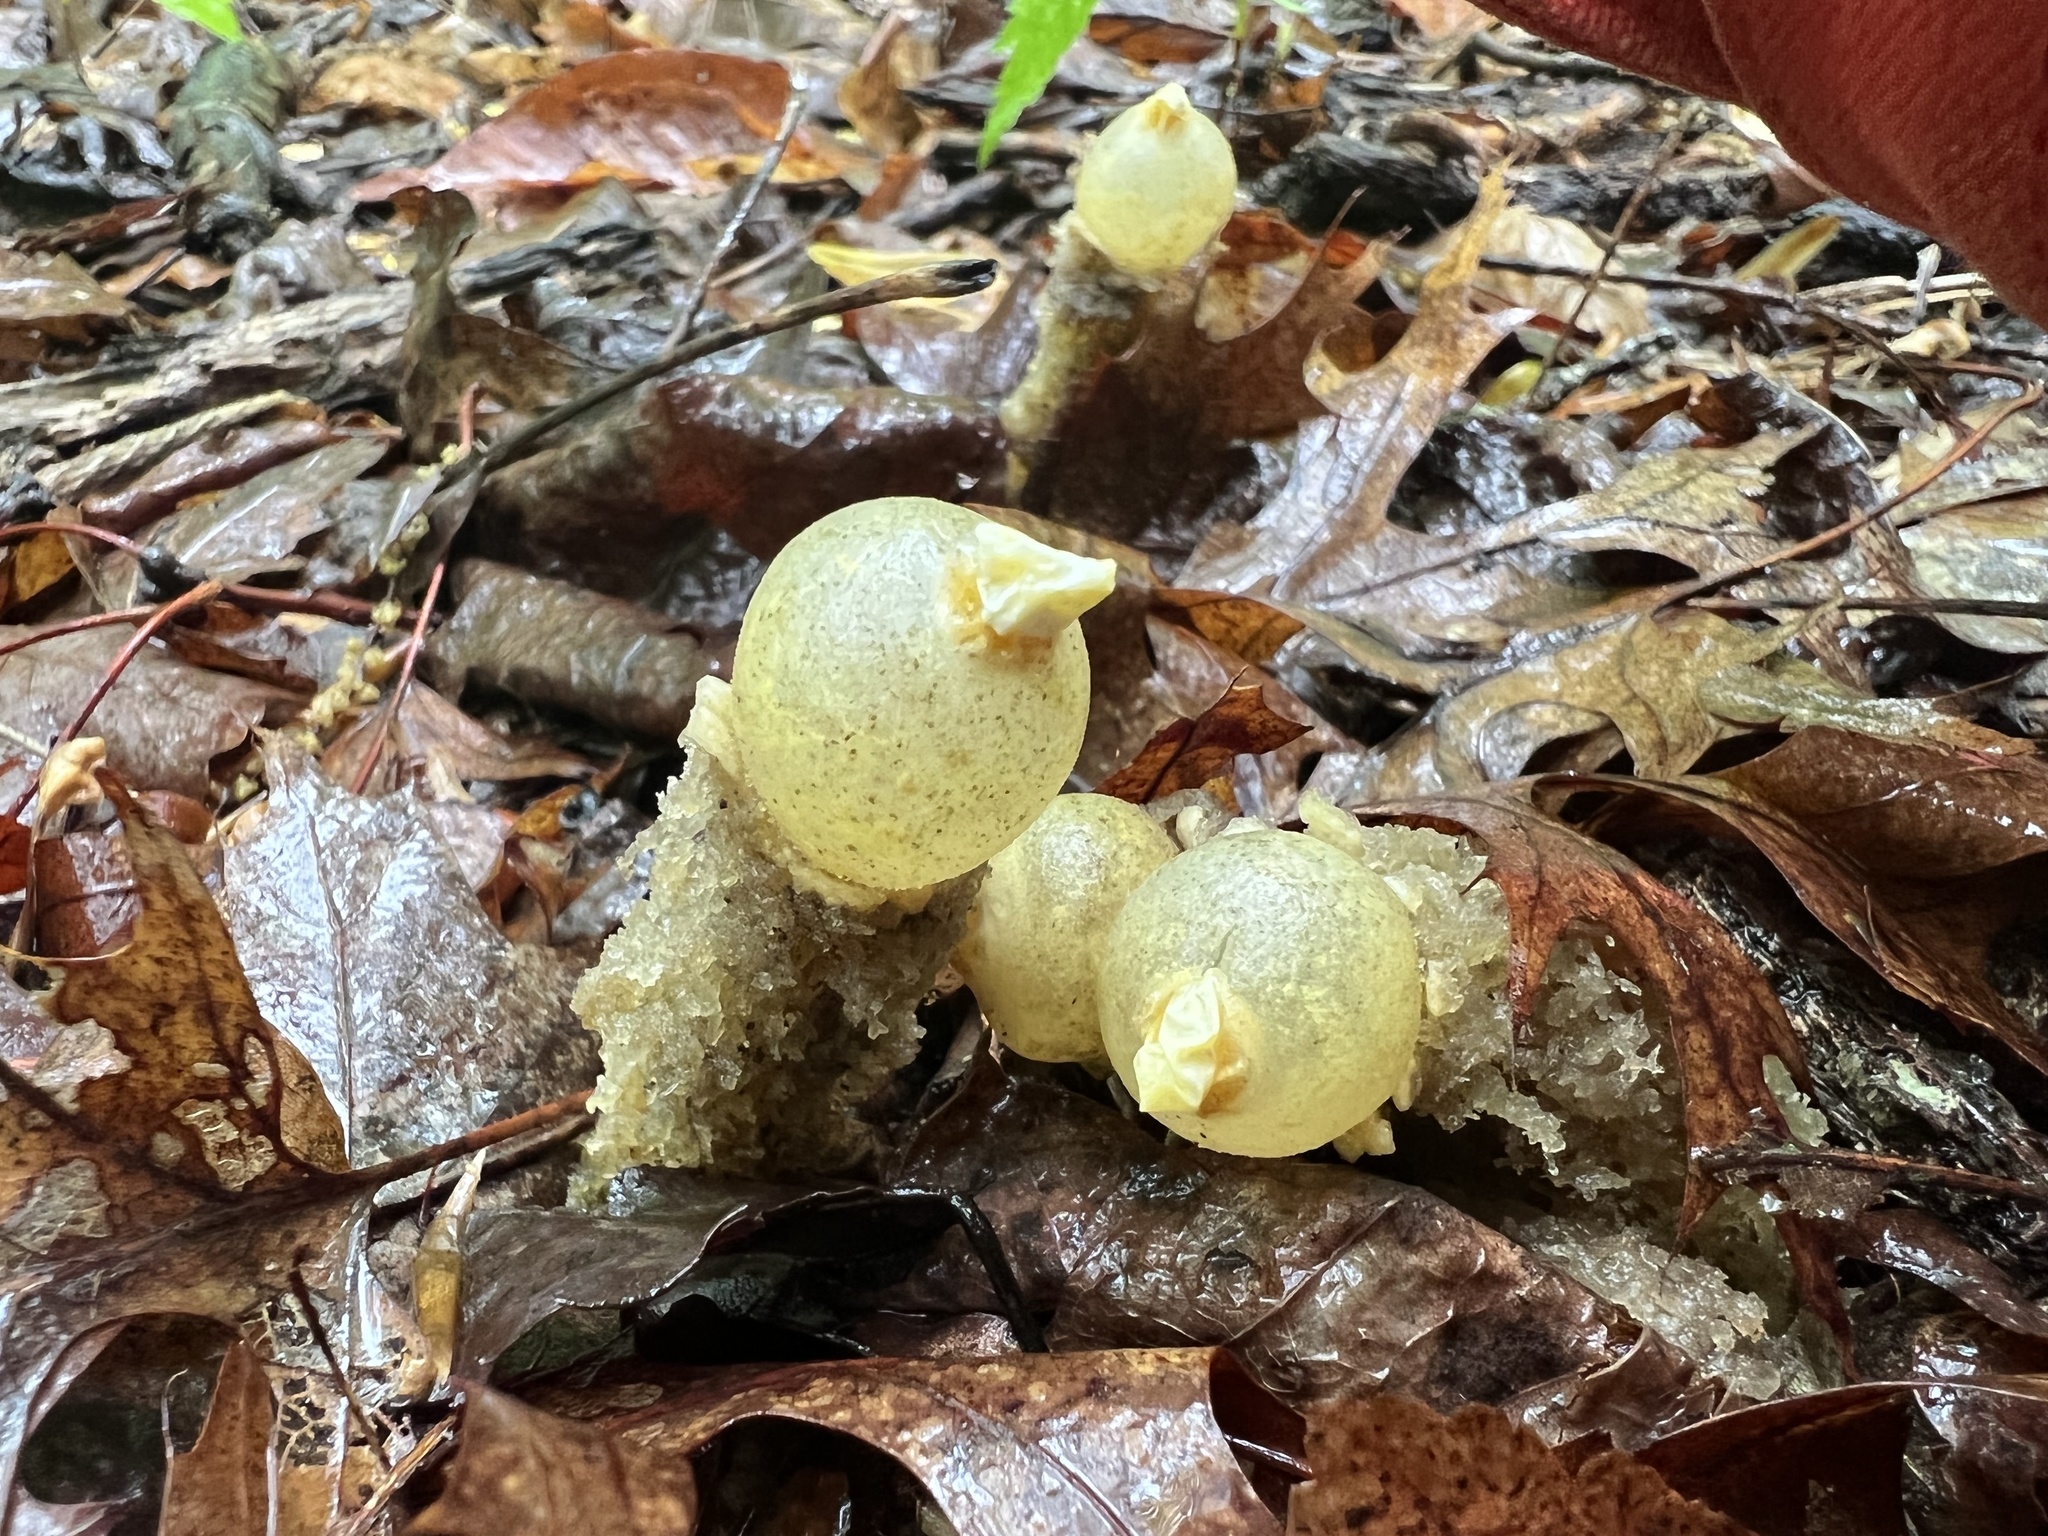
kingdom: Fungi
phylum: Basidiomycota
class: Agaricomycetes
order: Boletales
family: Calostomataceae
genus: Calostoma
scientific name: Calostoma lutescens
